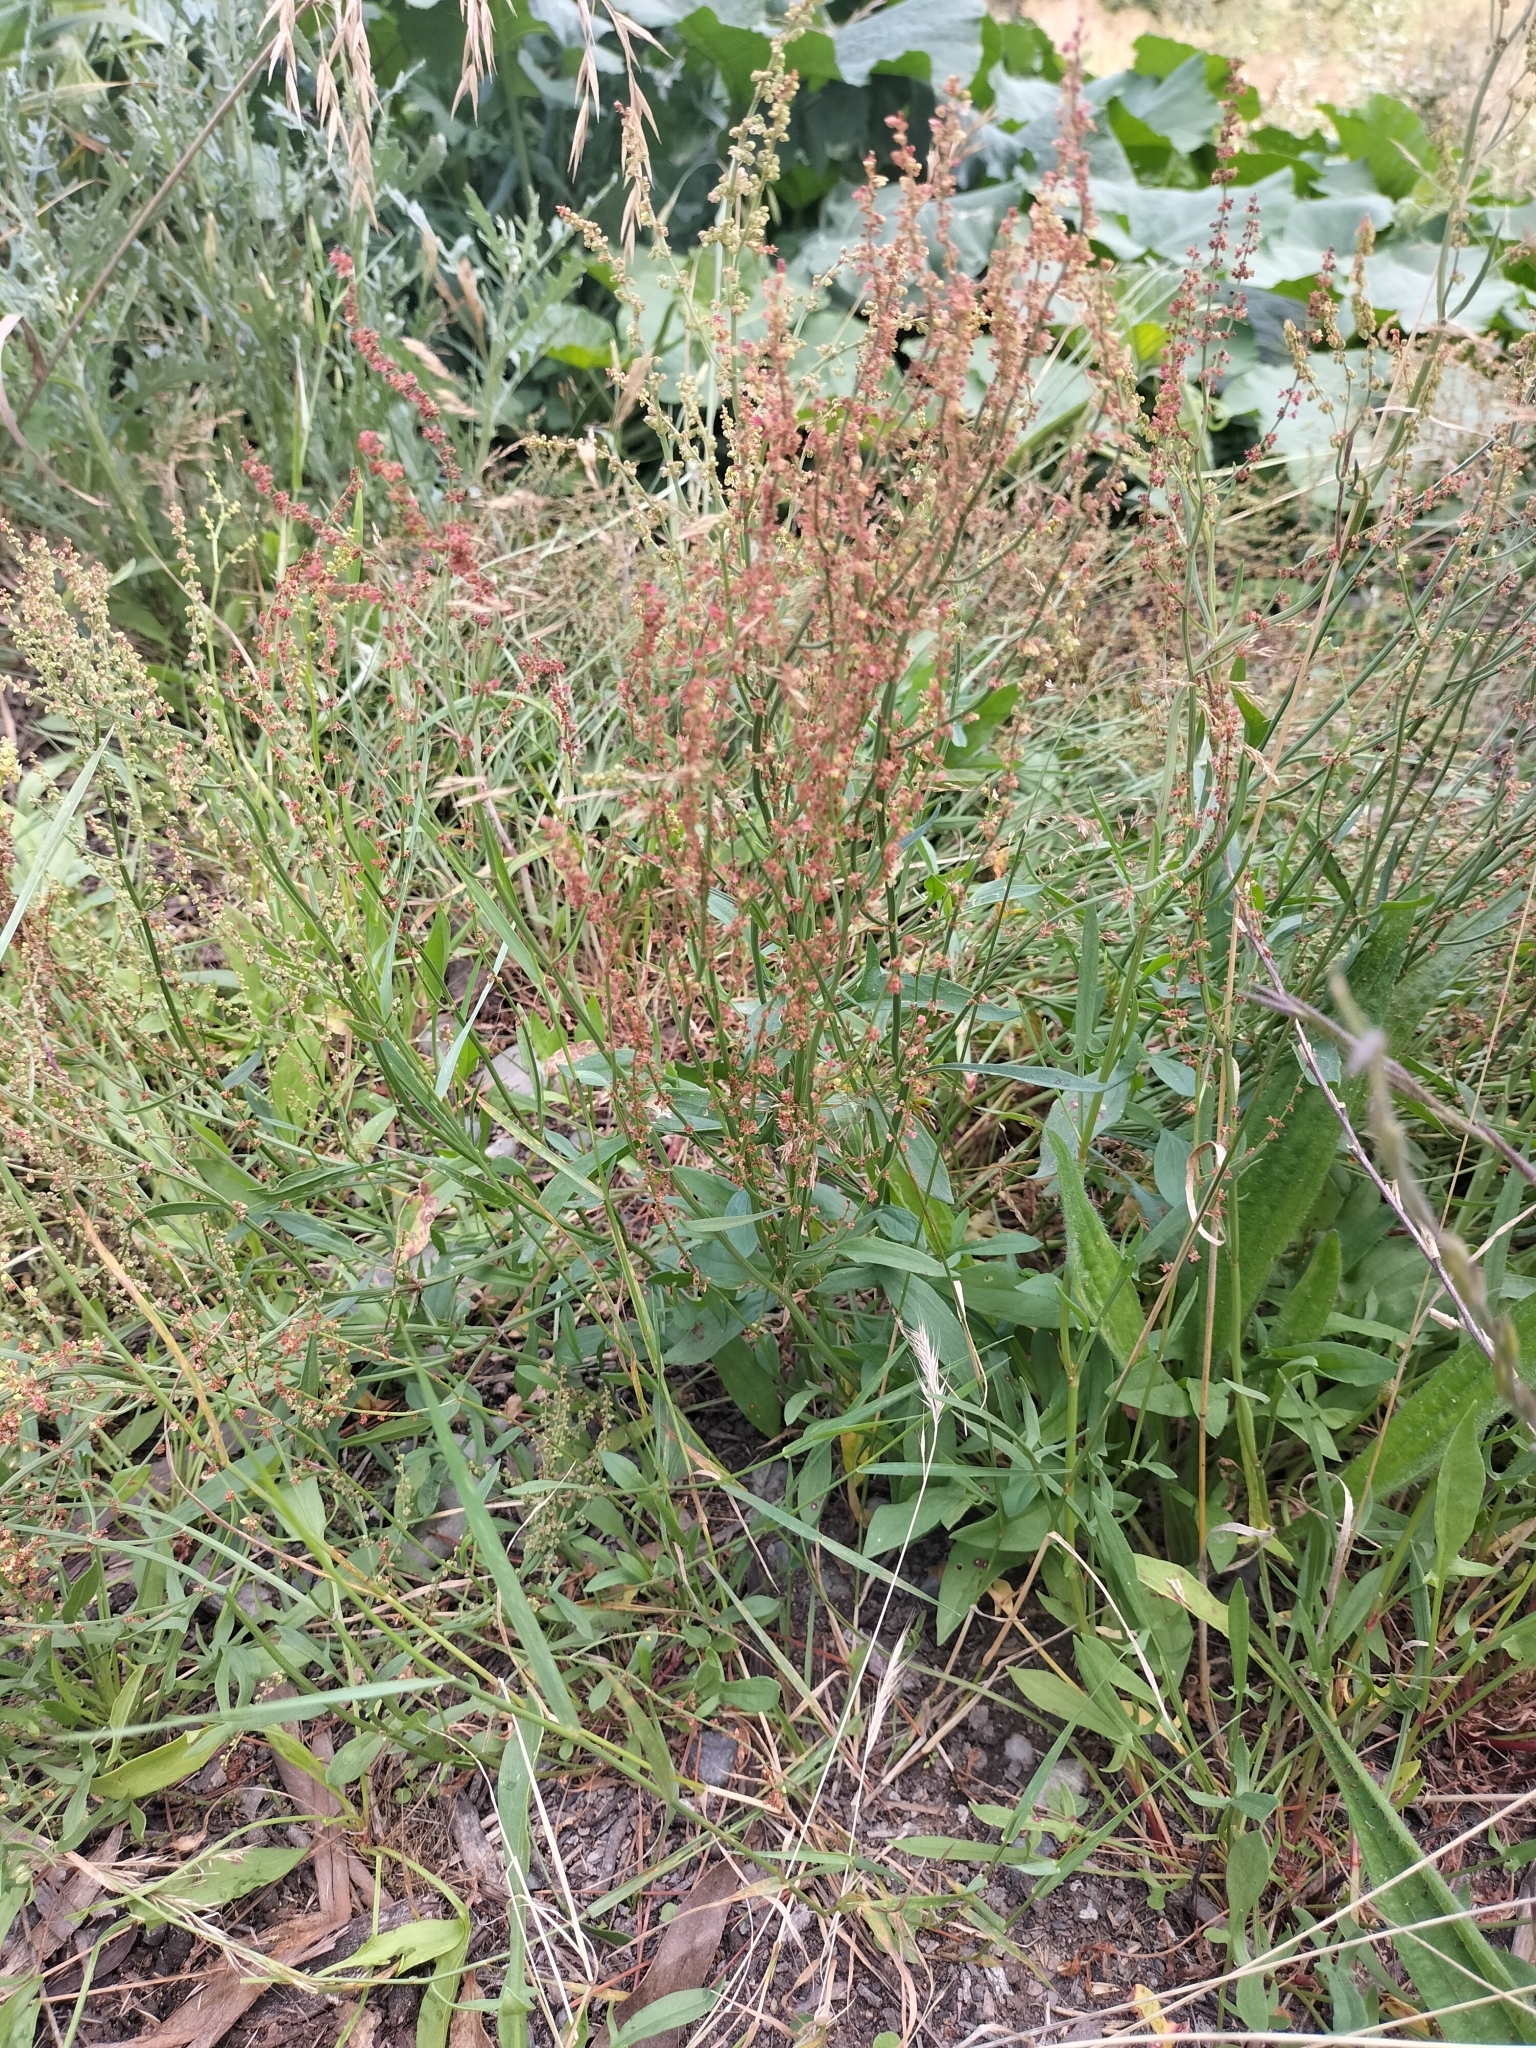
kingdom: Plantae
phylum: Tracheophyta
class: Magnoliopsida
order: Caryophyllales
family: Polygonaceae
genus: Rumex
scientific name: Rumex acetosella
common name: Common sheep sorrel
